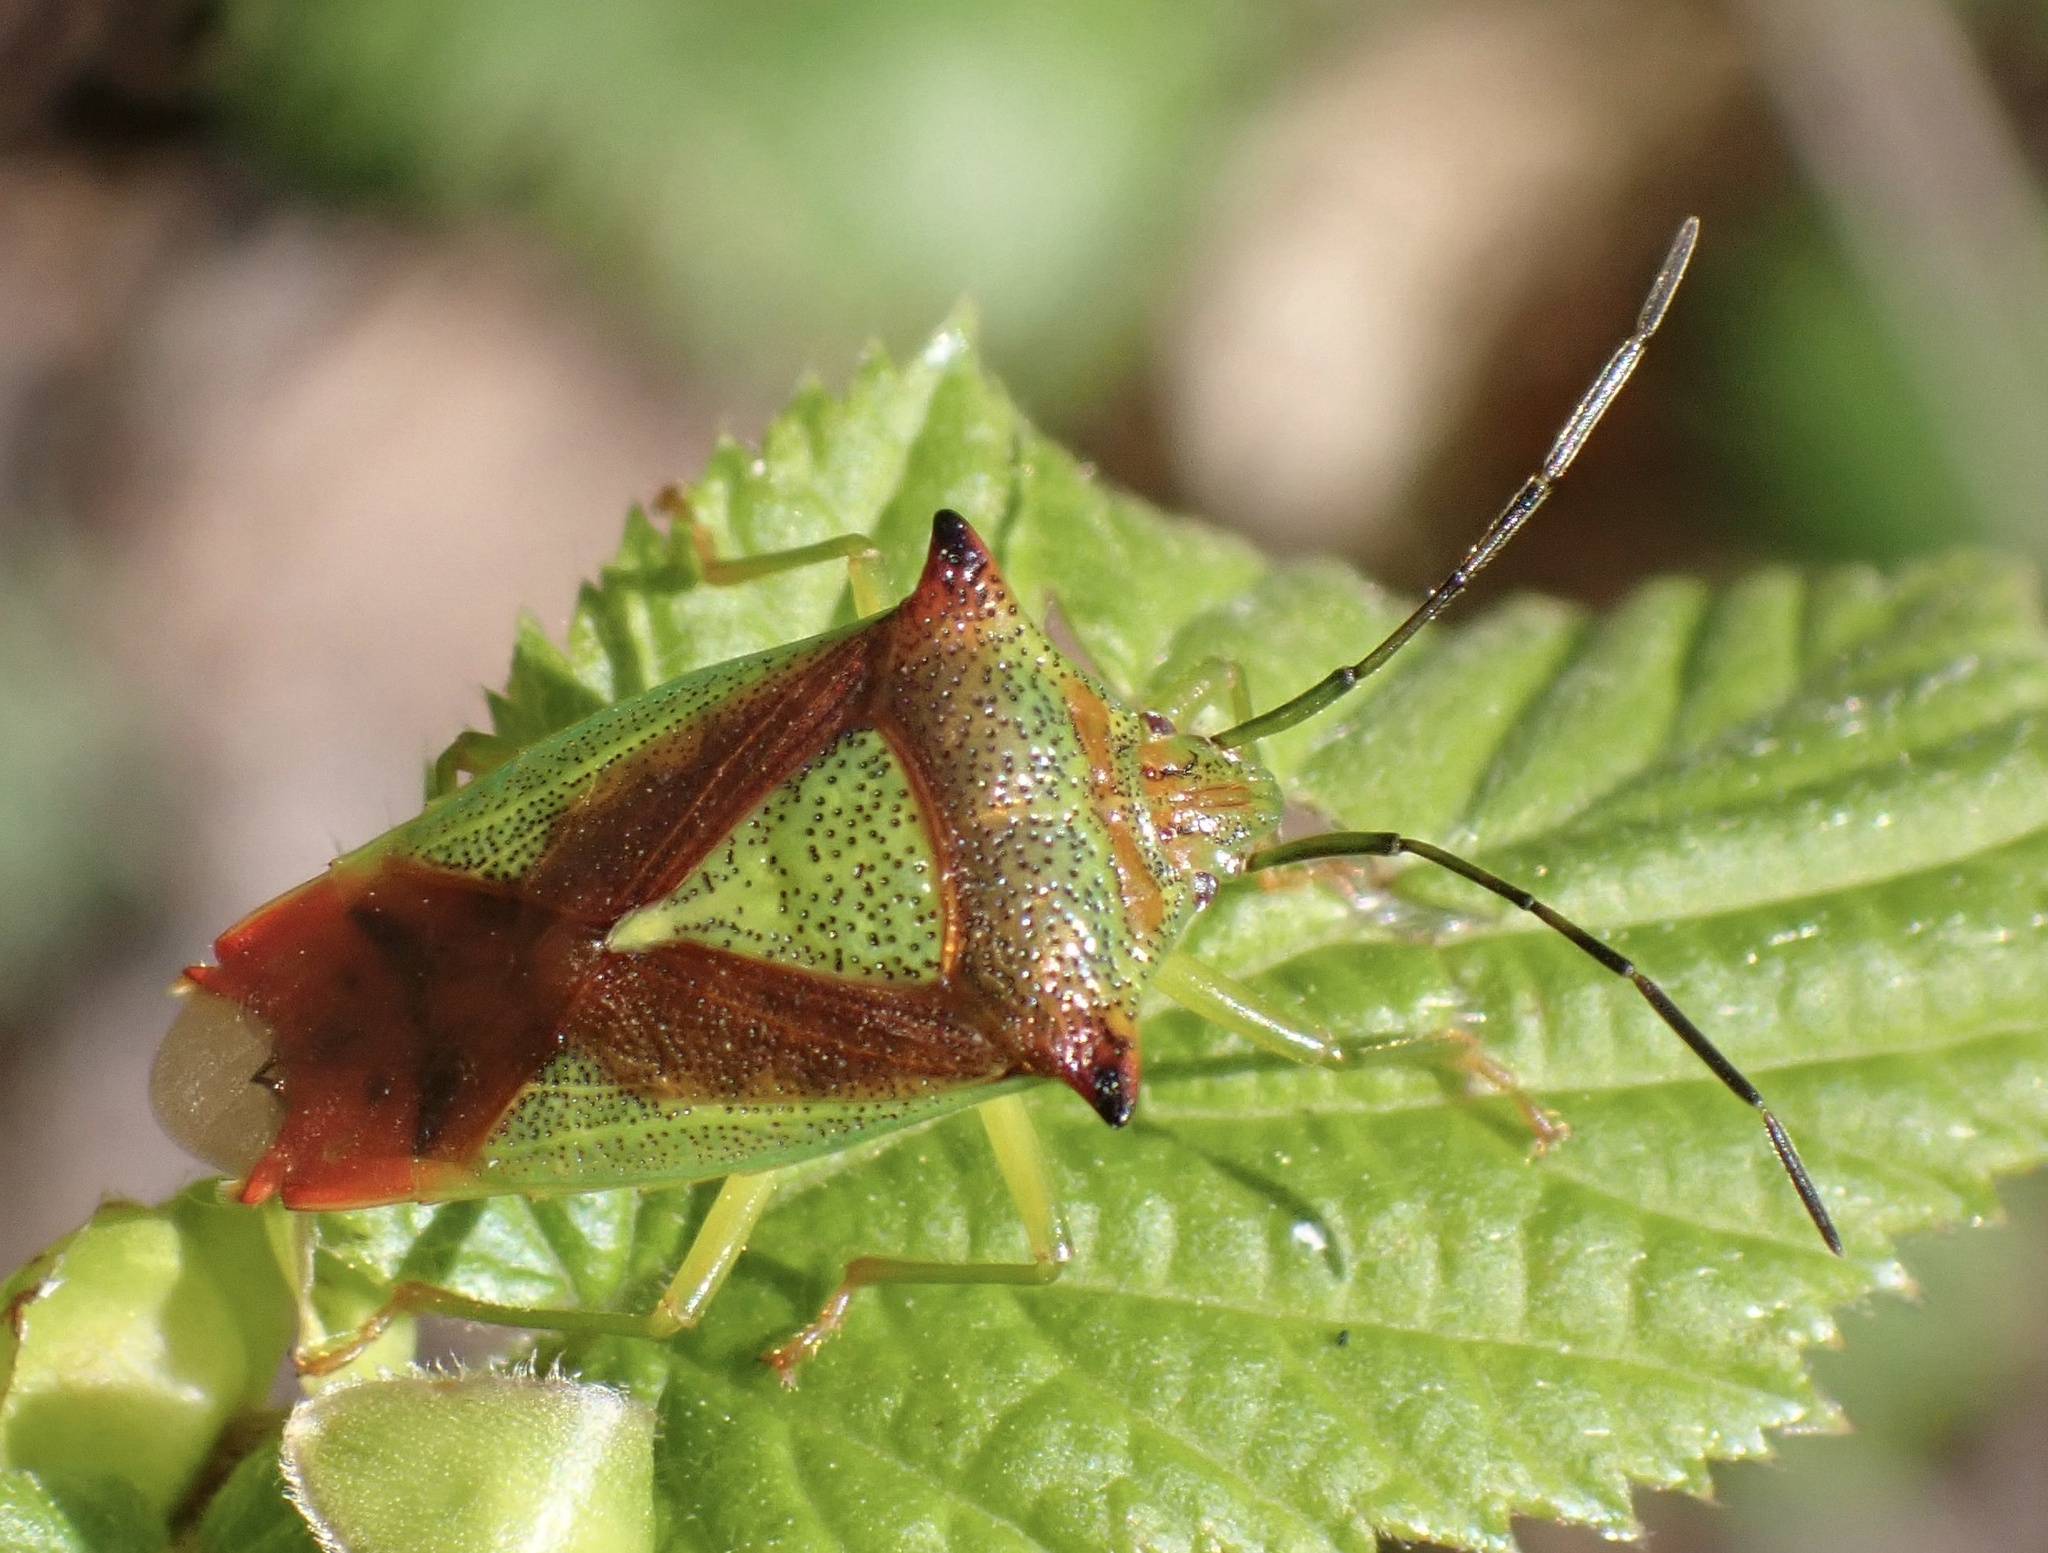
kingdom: Animalia
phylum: Arthropoda
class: Insecta
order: Hemiptera
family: Acanthosomatidae
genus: Acanthosoma
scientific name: Acanthosoma haemorrhoidale
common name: Hawthorn shieldbug
